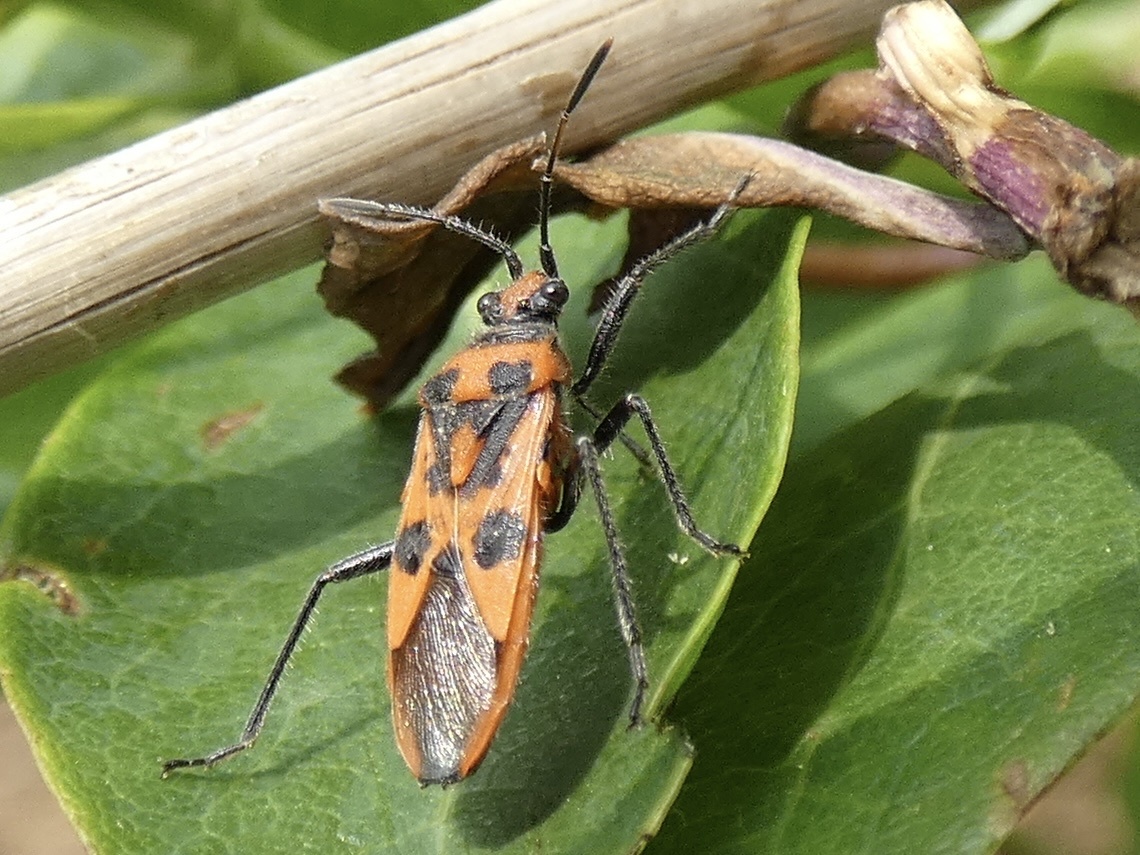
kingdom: Animalia
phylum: Arthropoda
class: Insecta
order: Hemiptera
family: Rhopalidae
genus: Corizus
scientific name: Corizus hyoscyami
